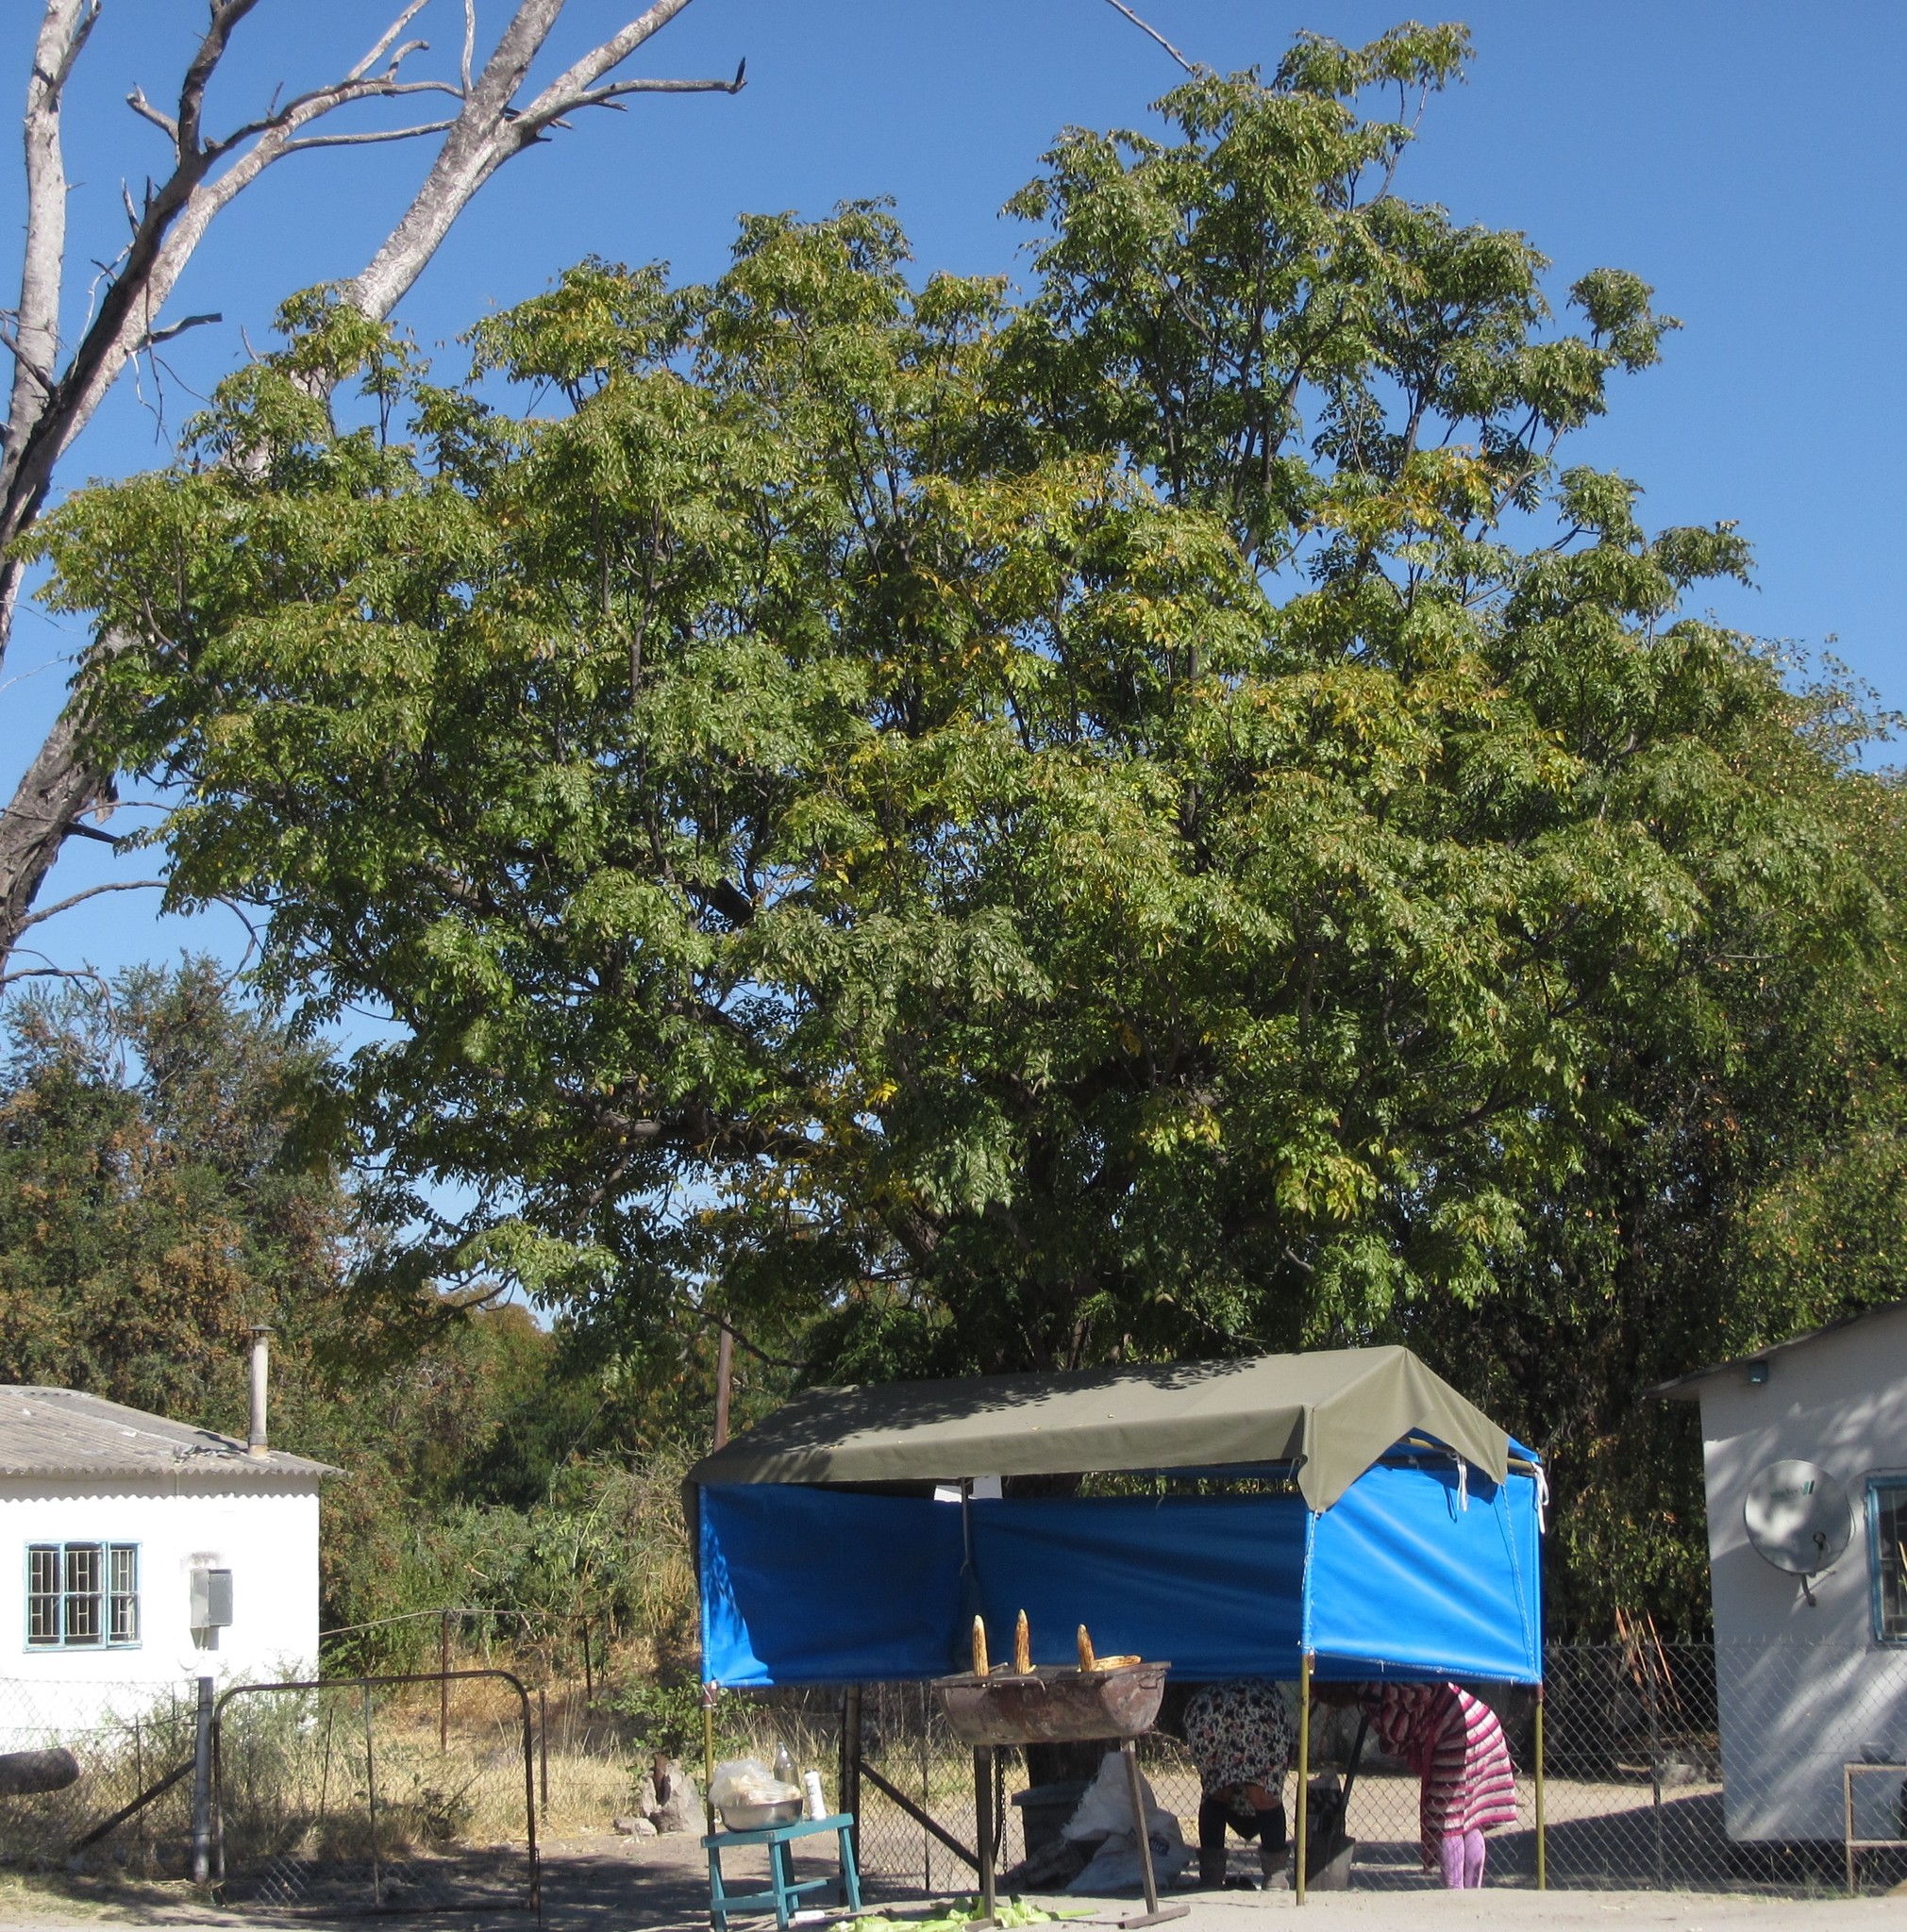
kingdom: Plantae
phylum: Tracheophyta
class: Magnoliopsida
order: Sapindales
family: Meliaceae
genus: Melia
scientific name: Melia azedarach
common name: Chinaberrytree
